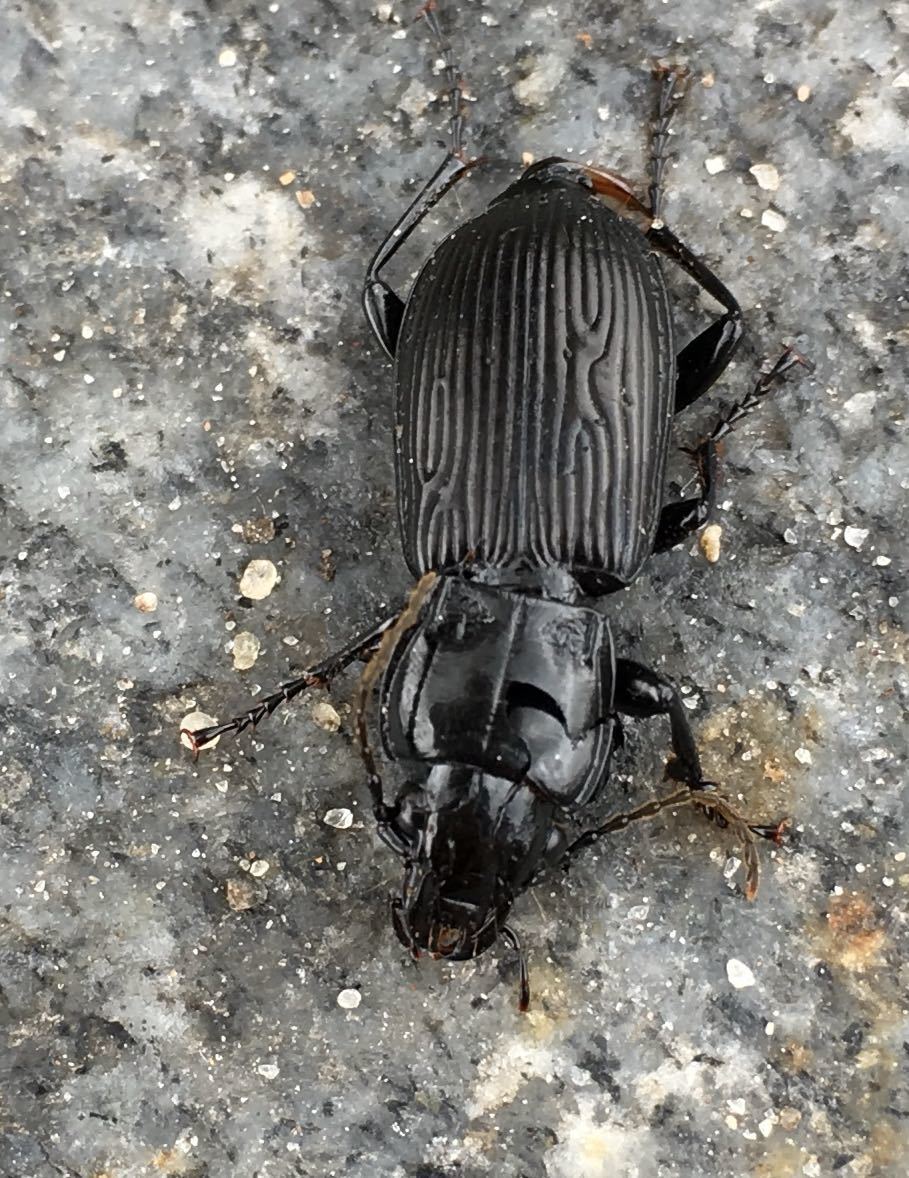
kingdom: Animalia
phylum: Arthropoda
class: Insecta
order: Coleoptera
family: Carabidae
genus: Pterostichus
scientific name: Pterostichus melanarius
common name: European dark harp ground beetle
